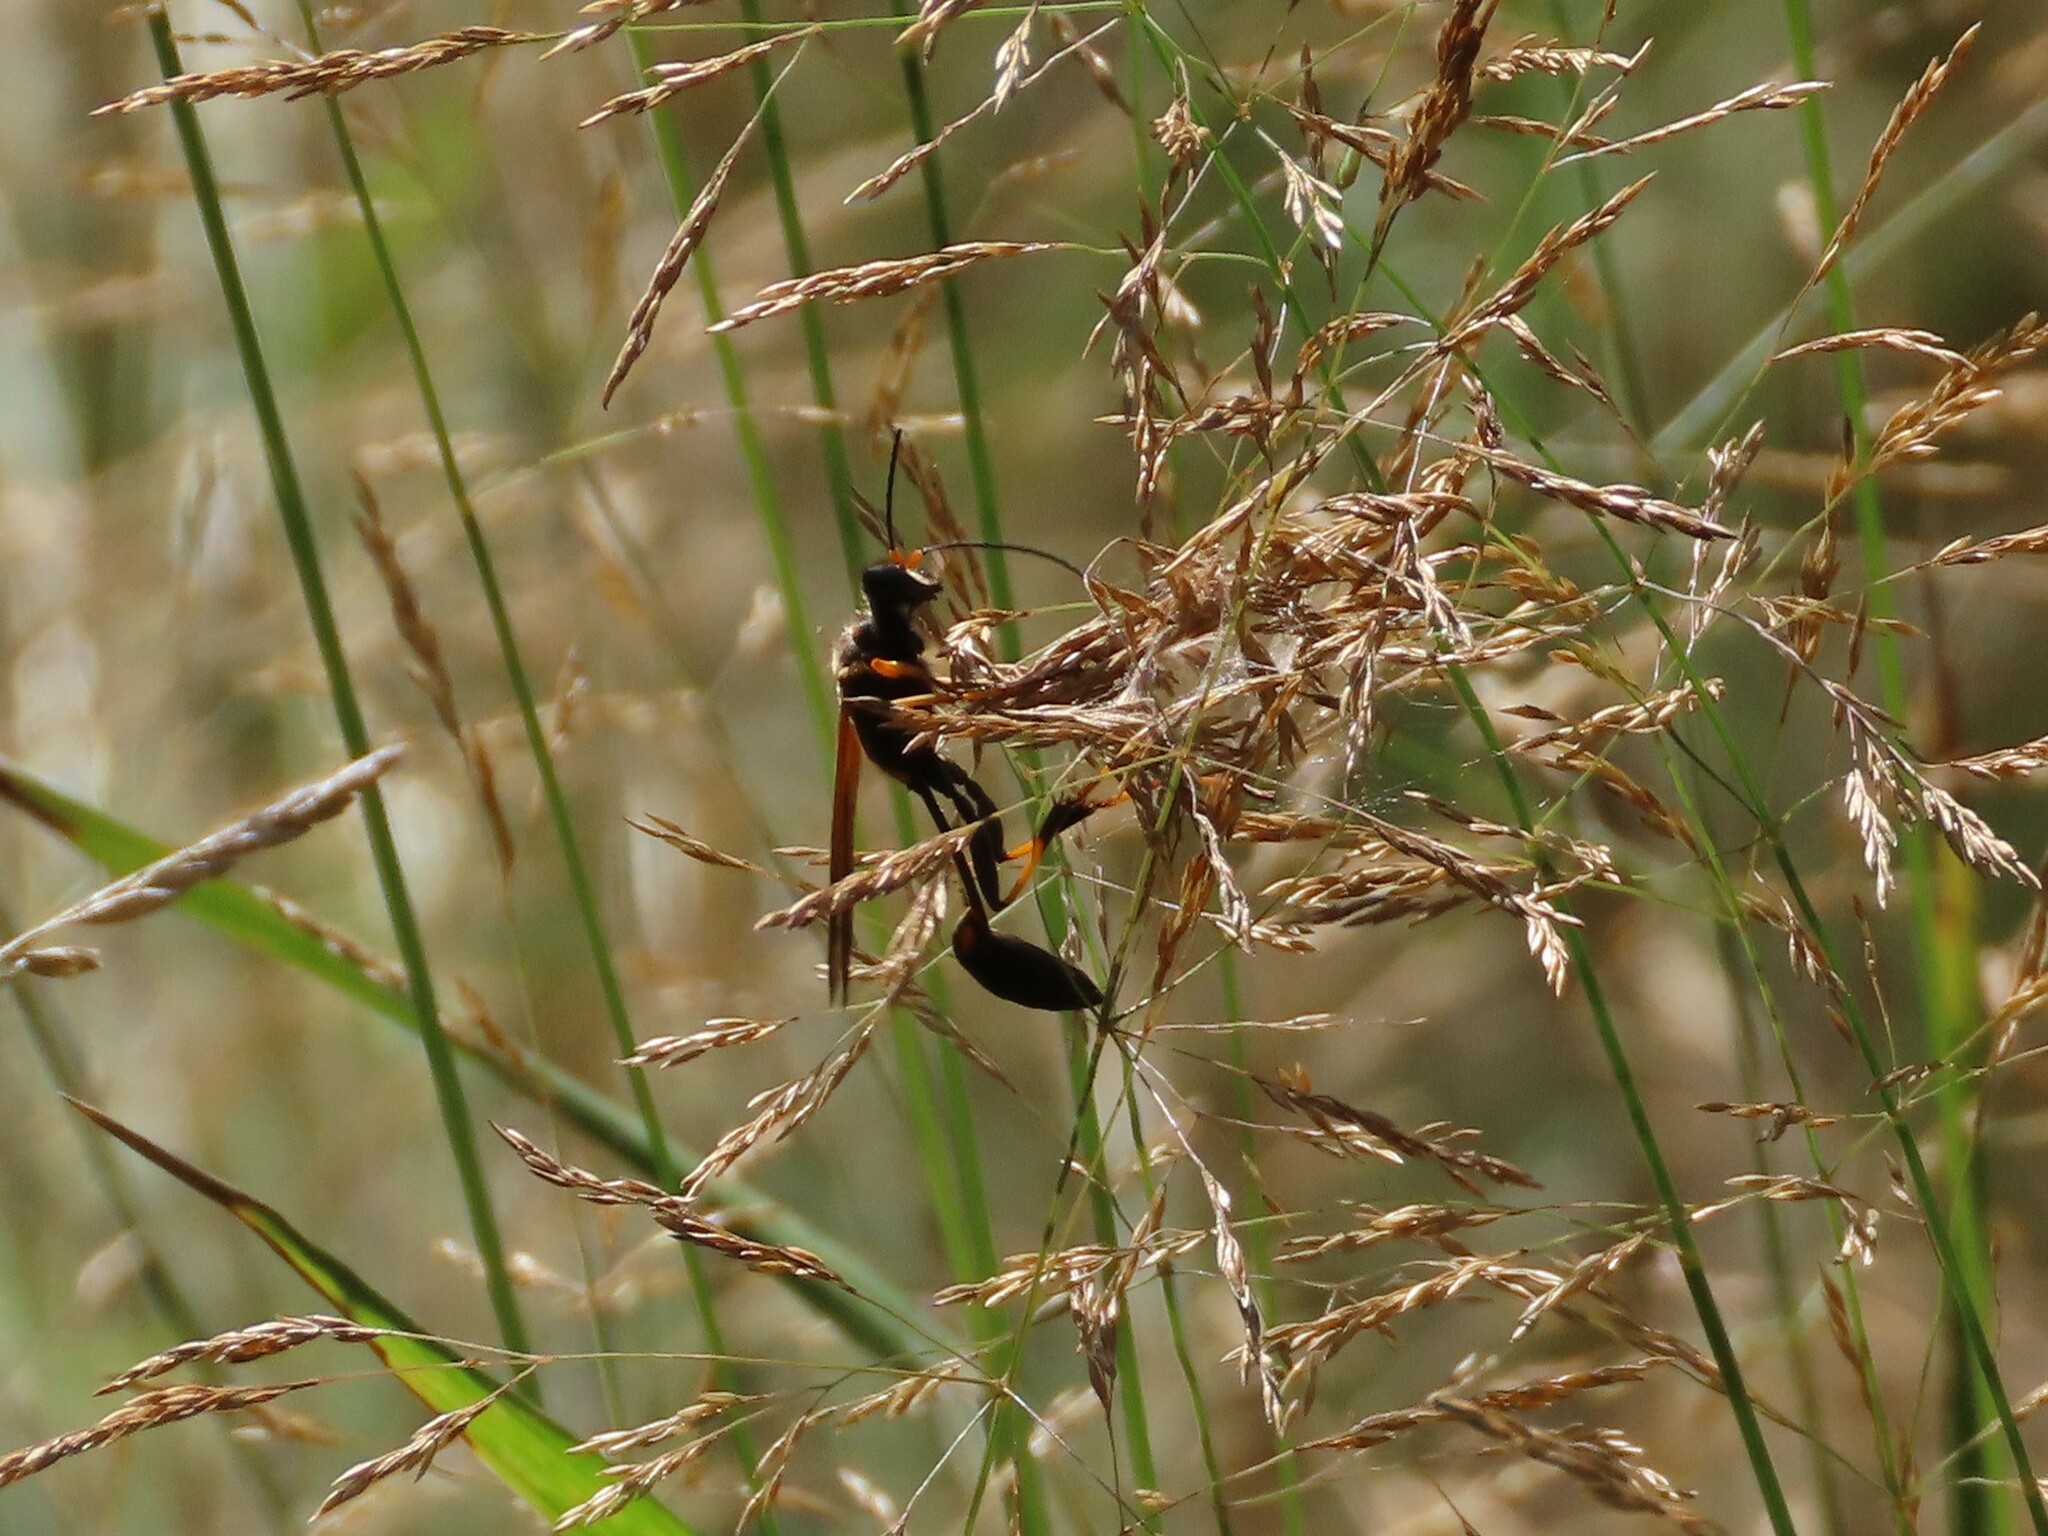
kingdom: Animalia
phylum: Arthropoda
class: Insecta
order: Hymenoptera
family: Sphecidae
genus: Sceliphron
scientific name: Sceliphron caementarium
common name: Mud dauber
